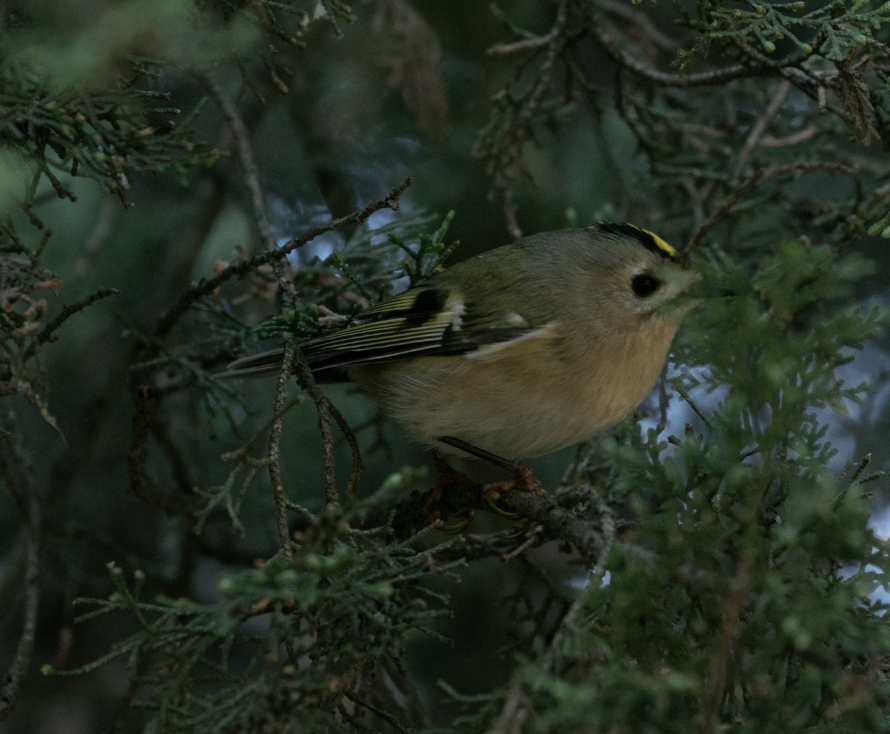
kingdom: Animalia
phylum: Chordata
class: Aves
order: Passeriformes
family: Regulidae
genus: Regulus
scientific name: Regulus regulus
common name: Goldcrest
